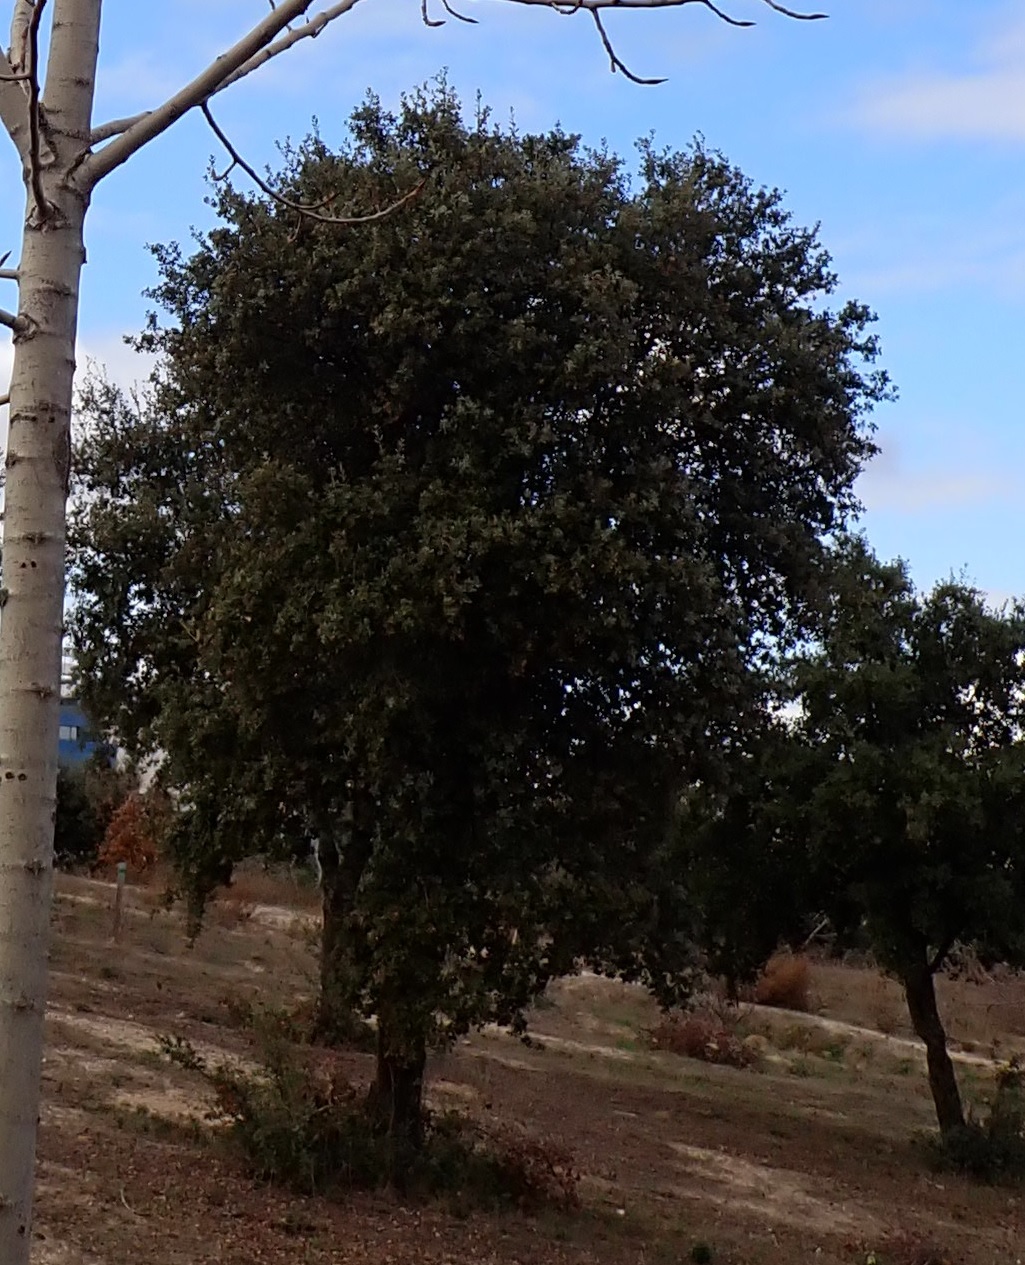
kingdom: Plantae
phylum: Tracheophyta
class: Magnoliopsida
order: Fagales
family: Fagaceae
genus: Quercus
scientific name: Quercus rotundifolia
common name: Holm oak
